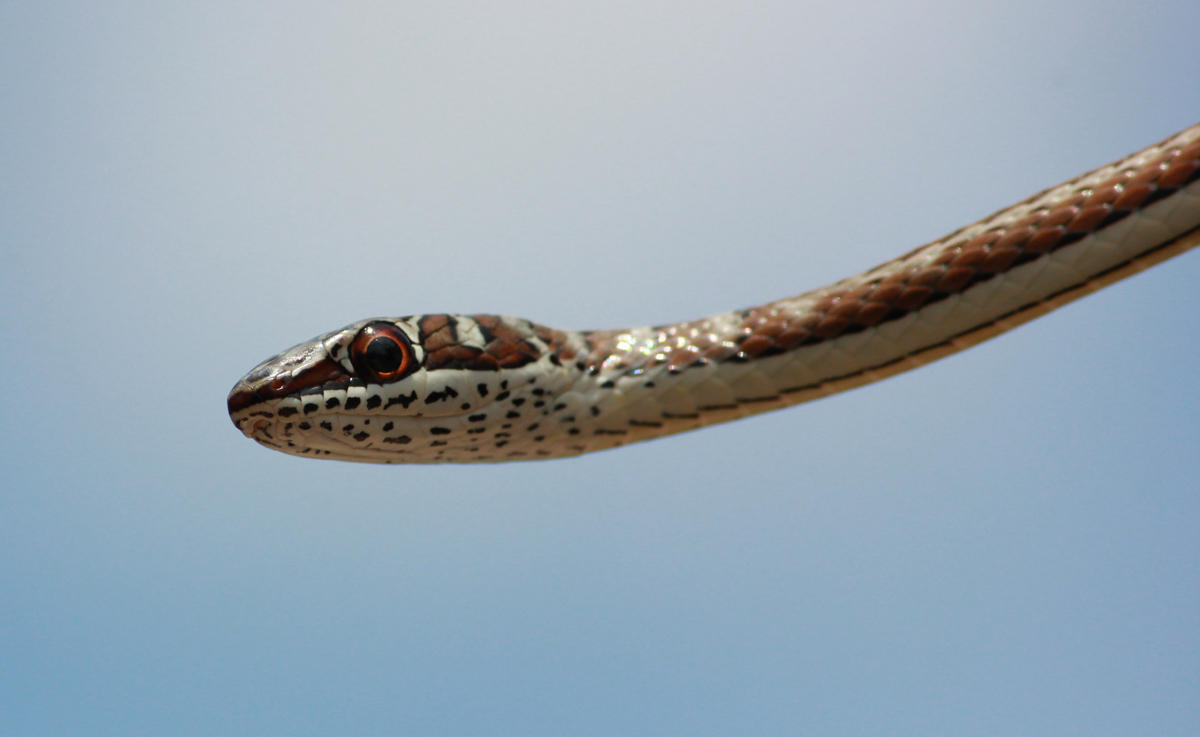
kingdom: Animalia
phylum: Chordata
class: Squamata
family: Psammophiidae
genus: Psammophis
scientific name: Psammophis subtaeniatus
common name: Stripe-bellied sand snake
